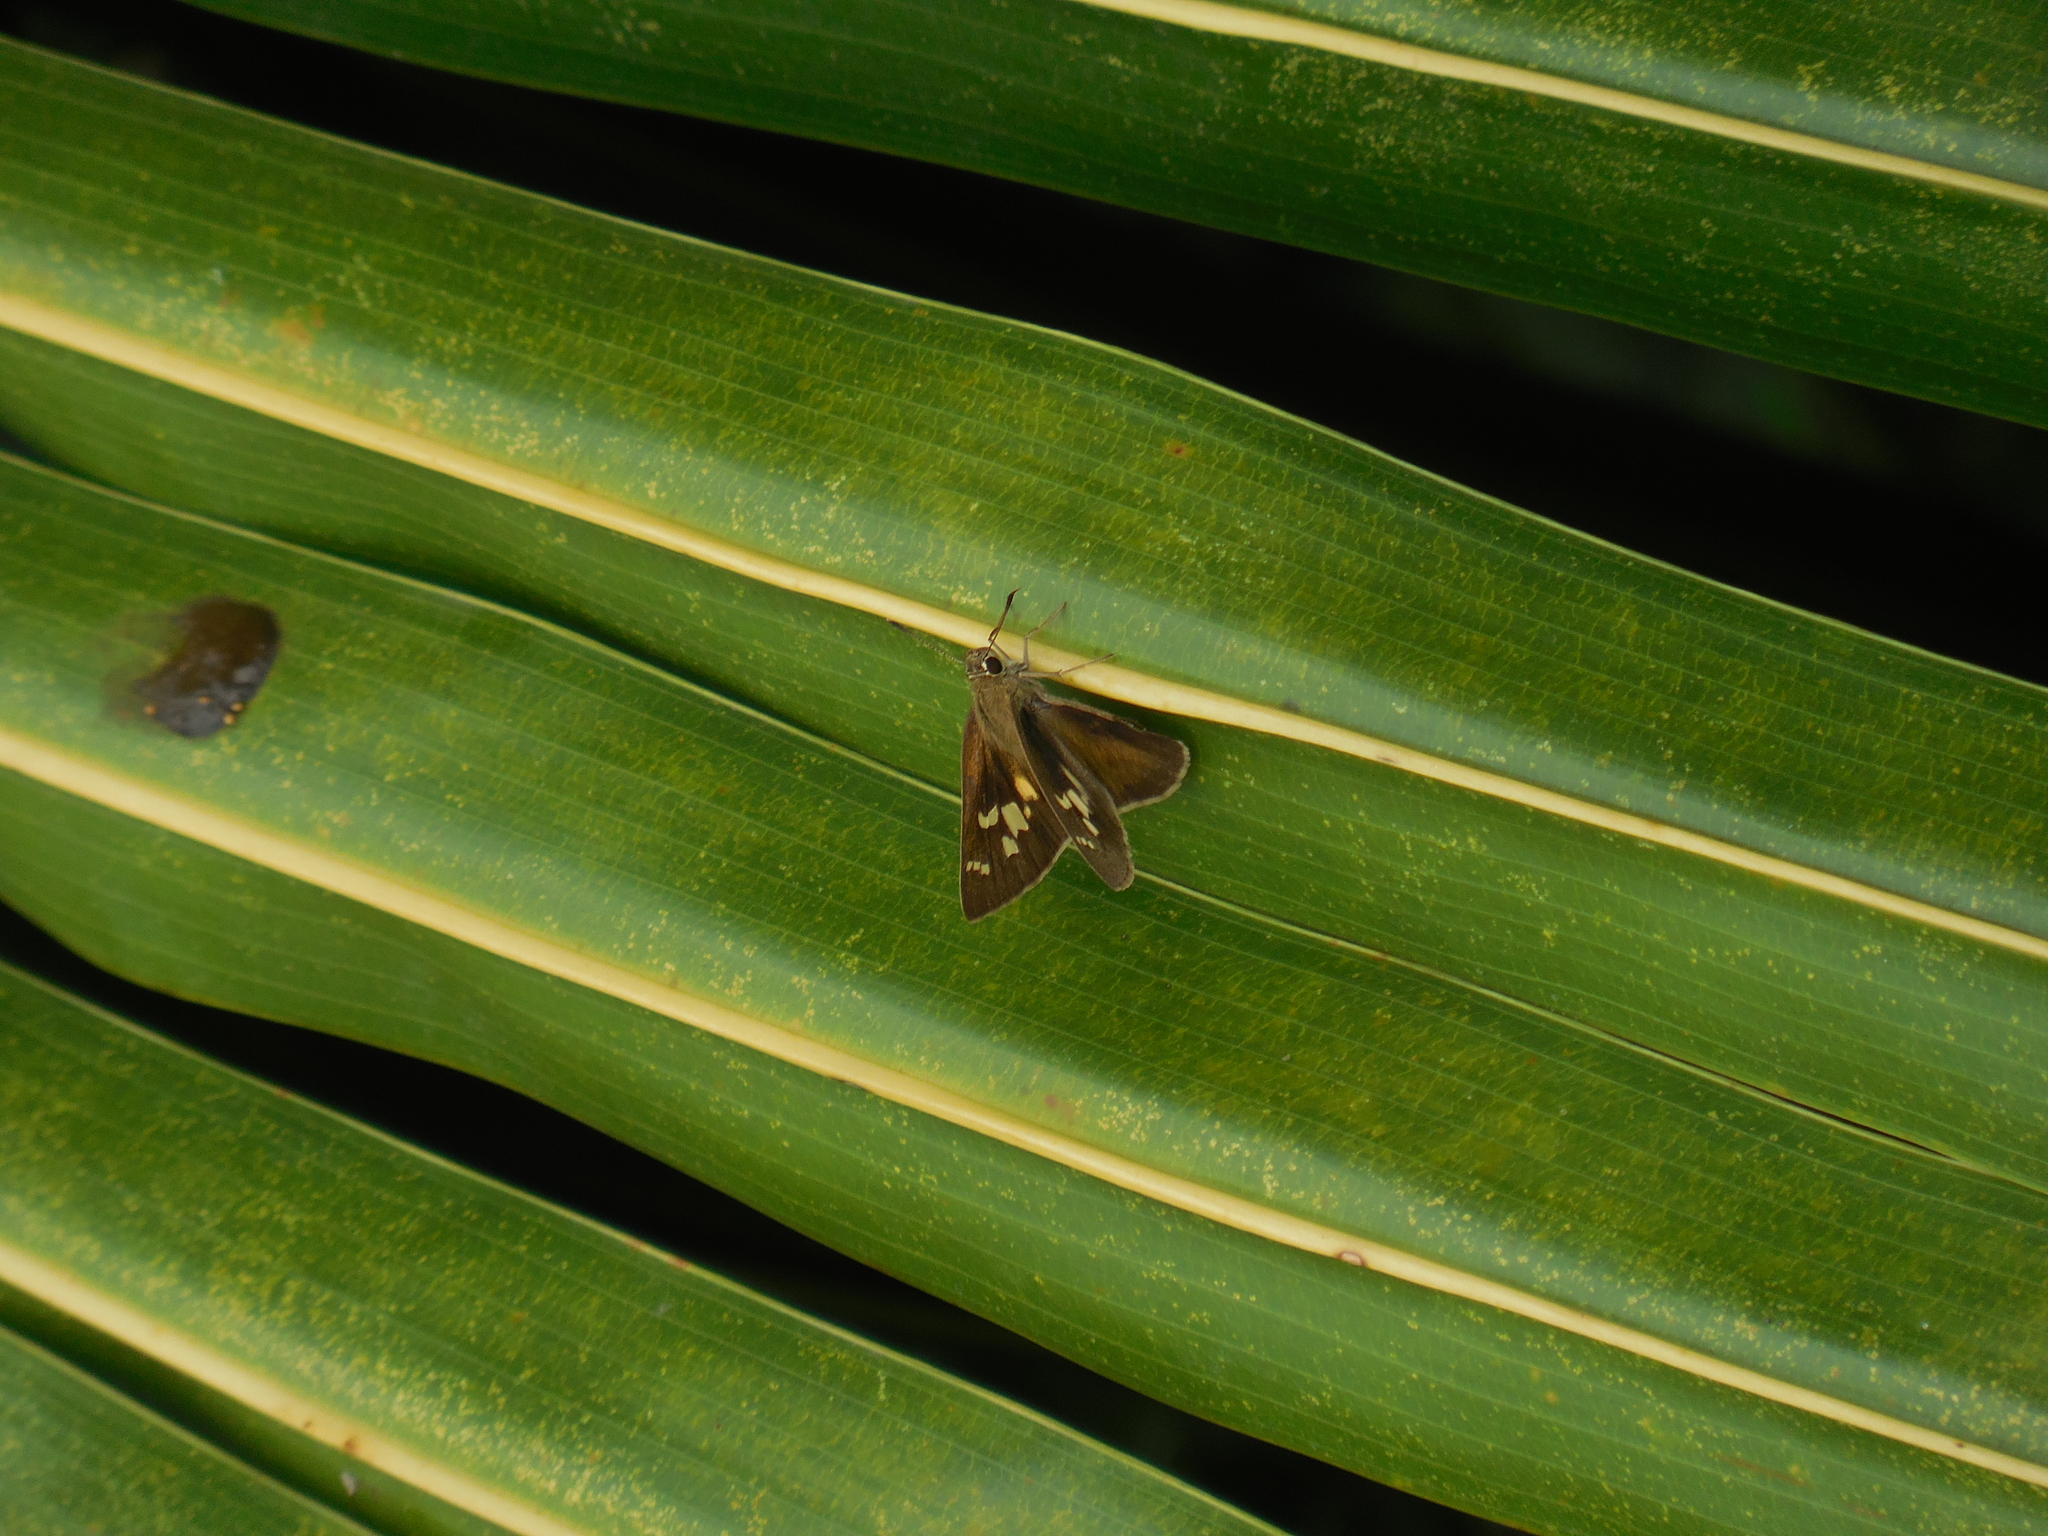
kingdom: Animalia
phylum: Arthropoda
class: Insecta
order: Lepidoptera
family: Hesperiidae
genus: Baoris
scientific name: Baoris pagana
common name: Figure-of-eight swift
